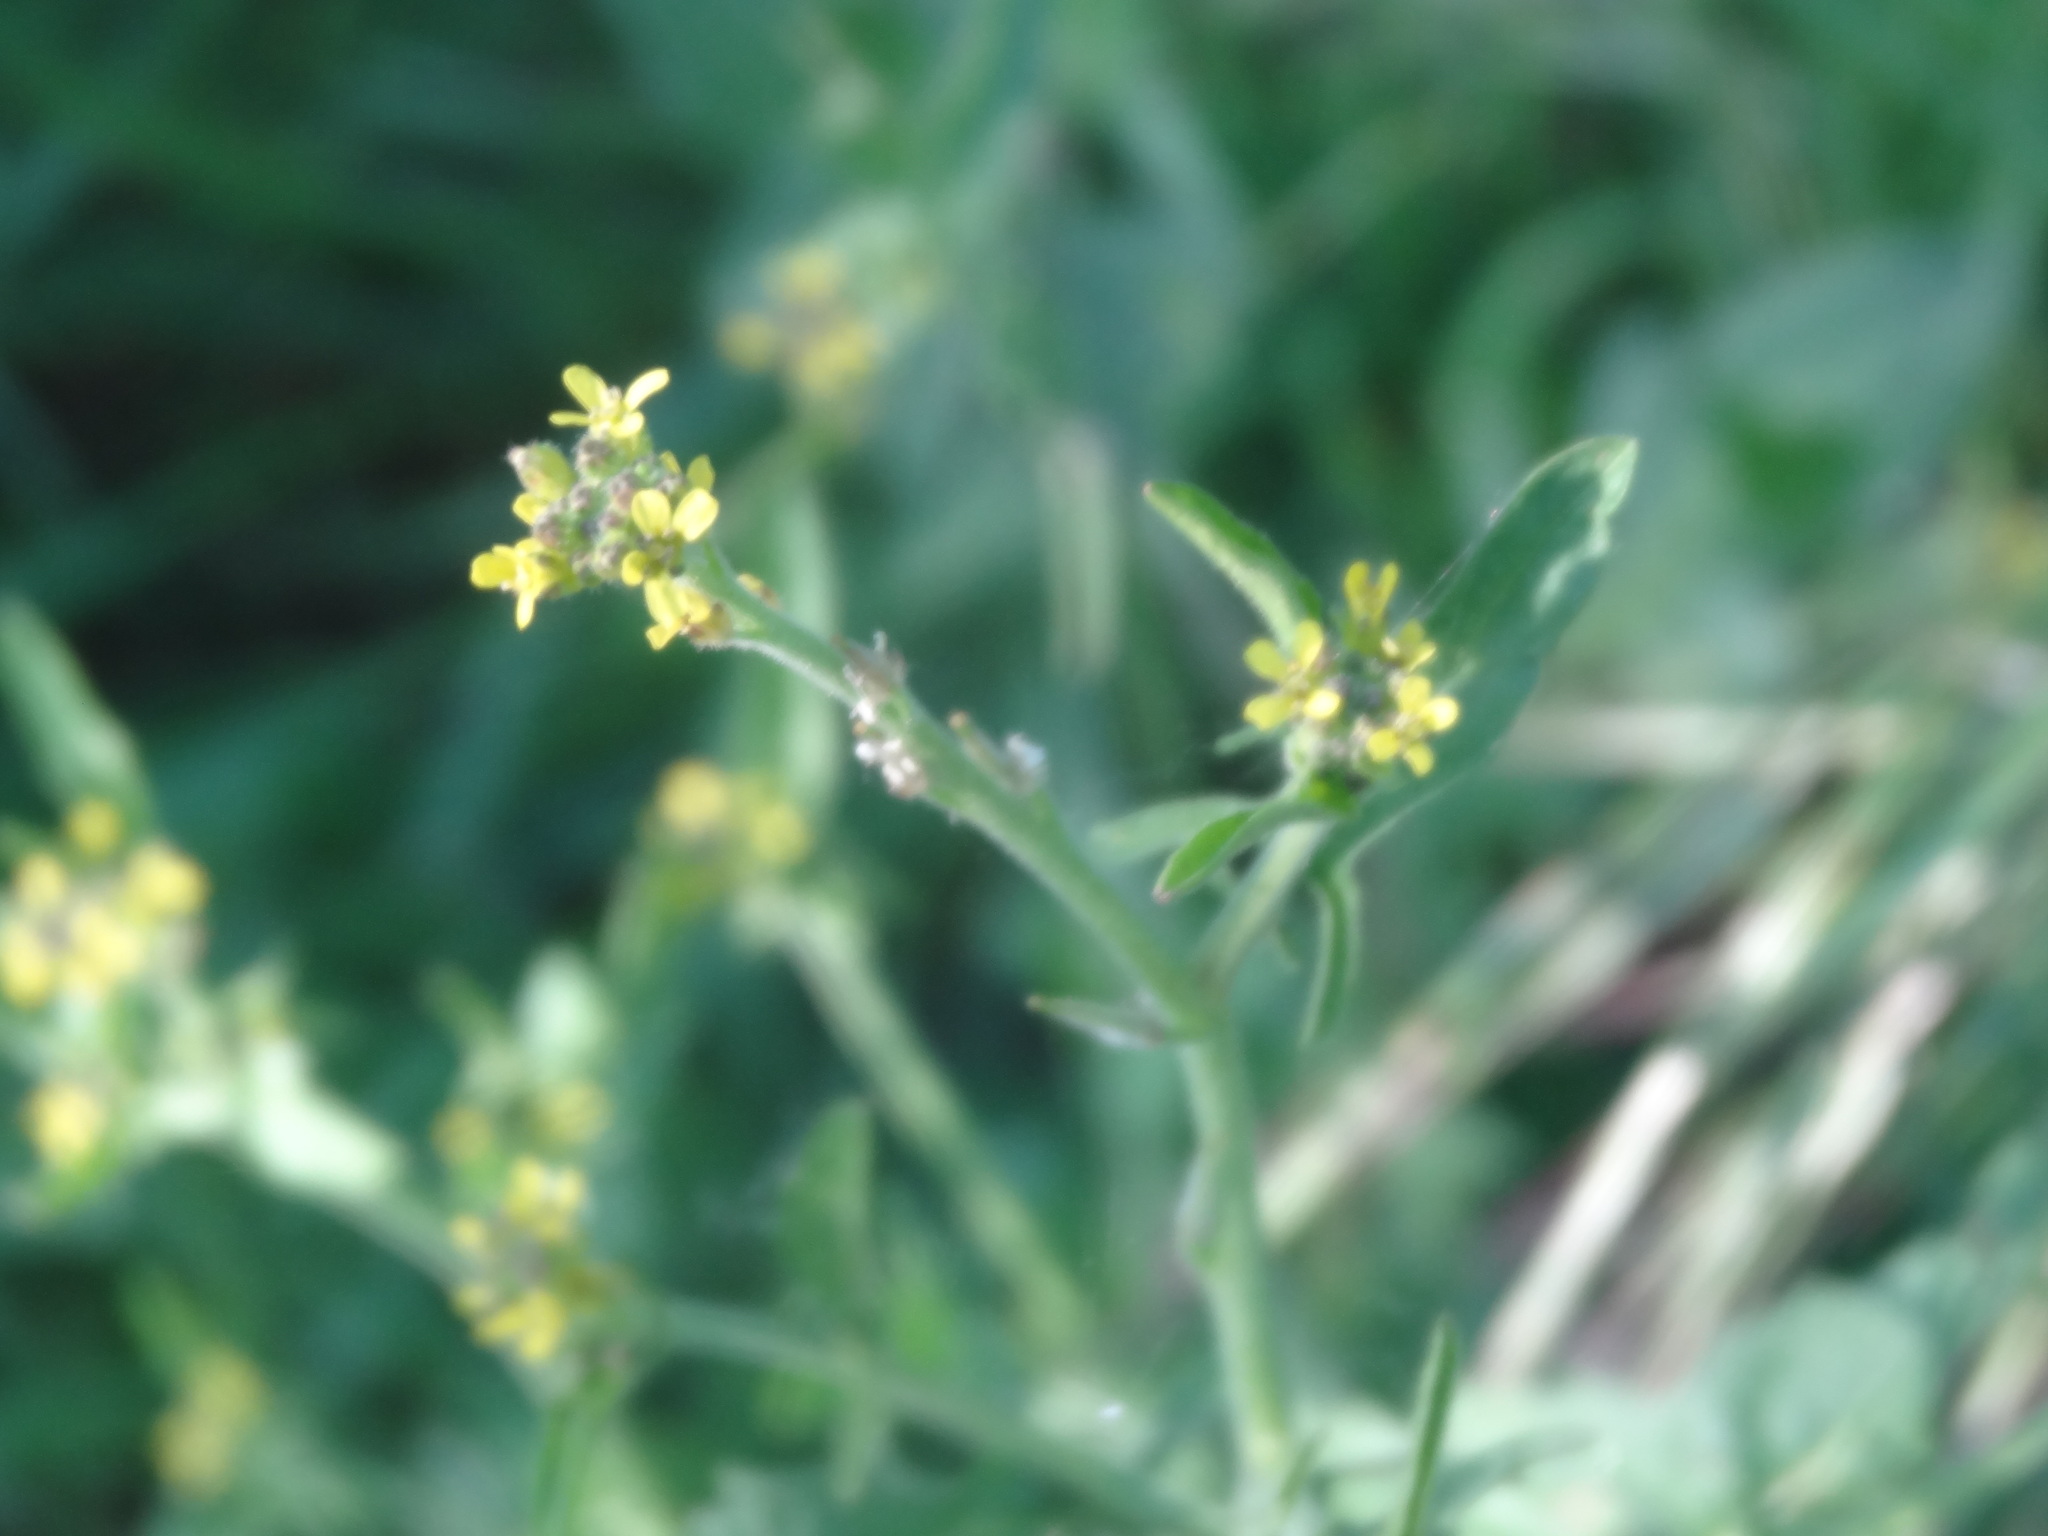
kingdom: Plantae
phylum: Tracheophyta
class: Magnoliopsida
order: Brassicales
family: Brassicaceae
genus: Sisymbrium
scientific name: Sisymbrium officinale
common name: Hedge mustard
